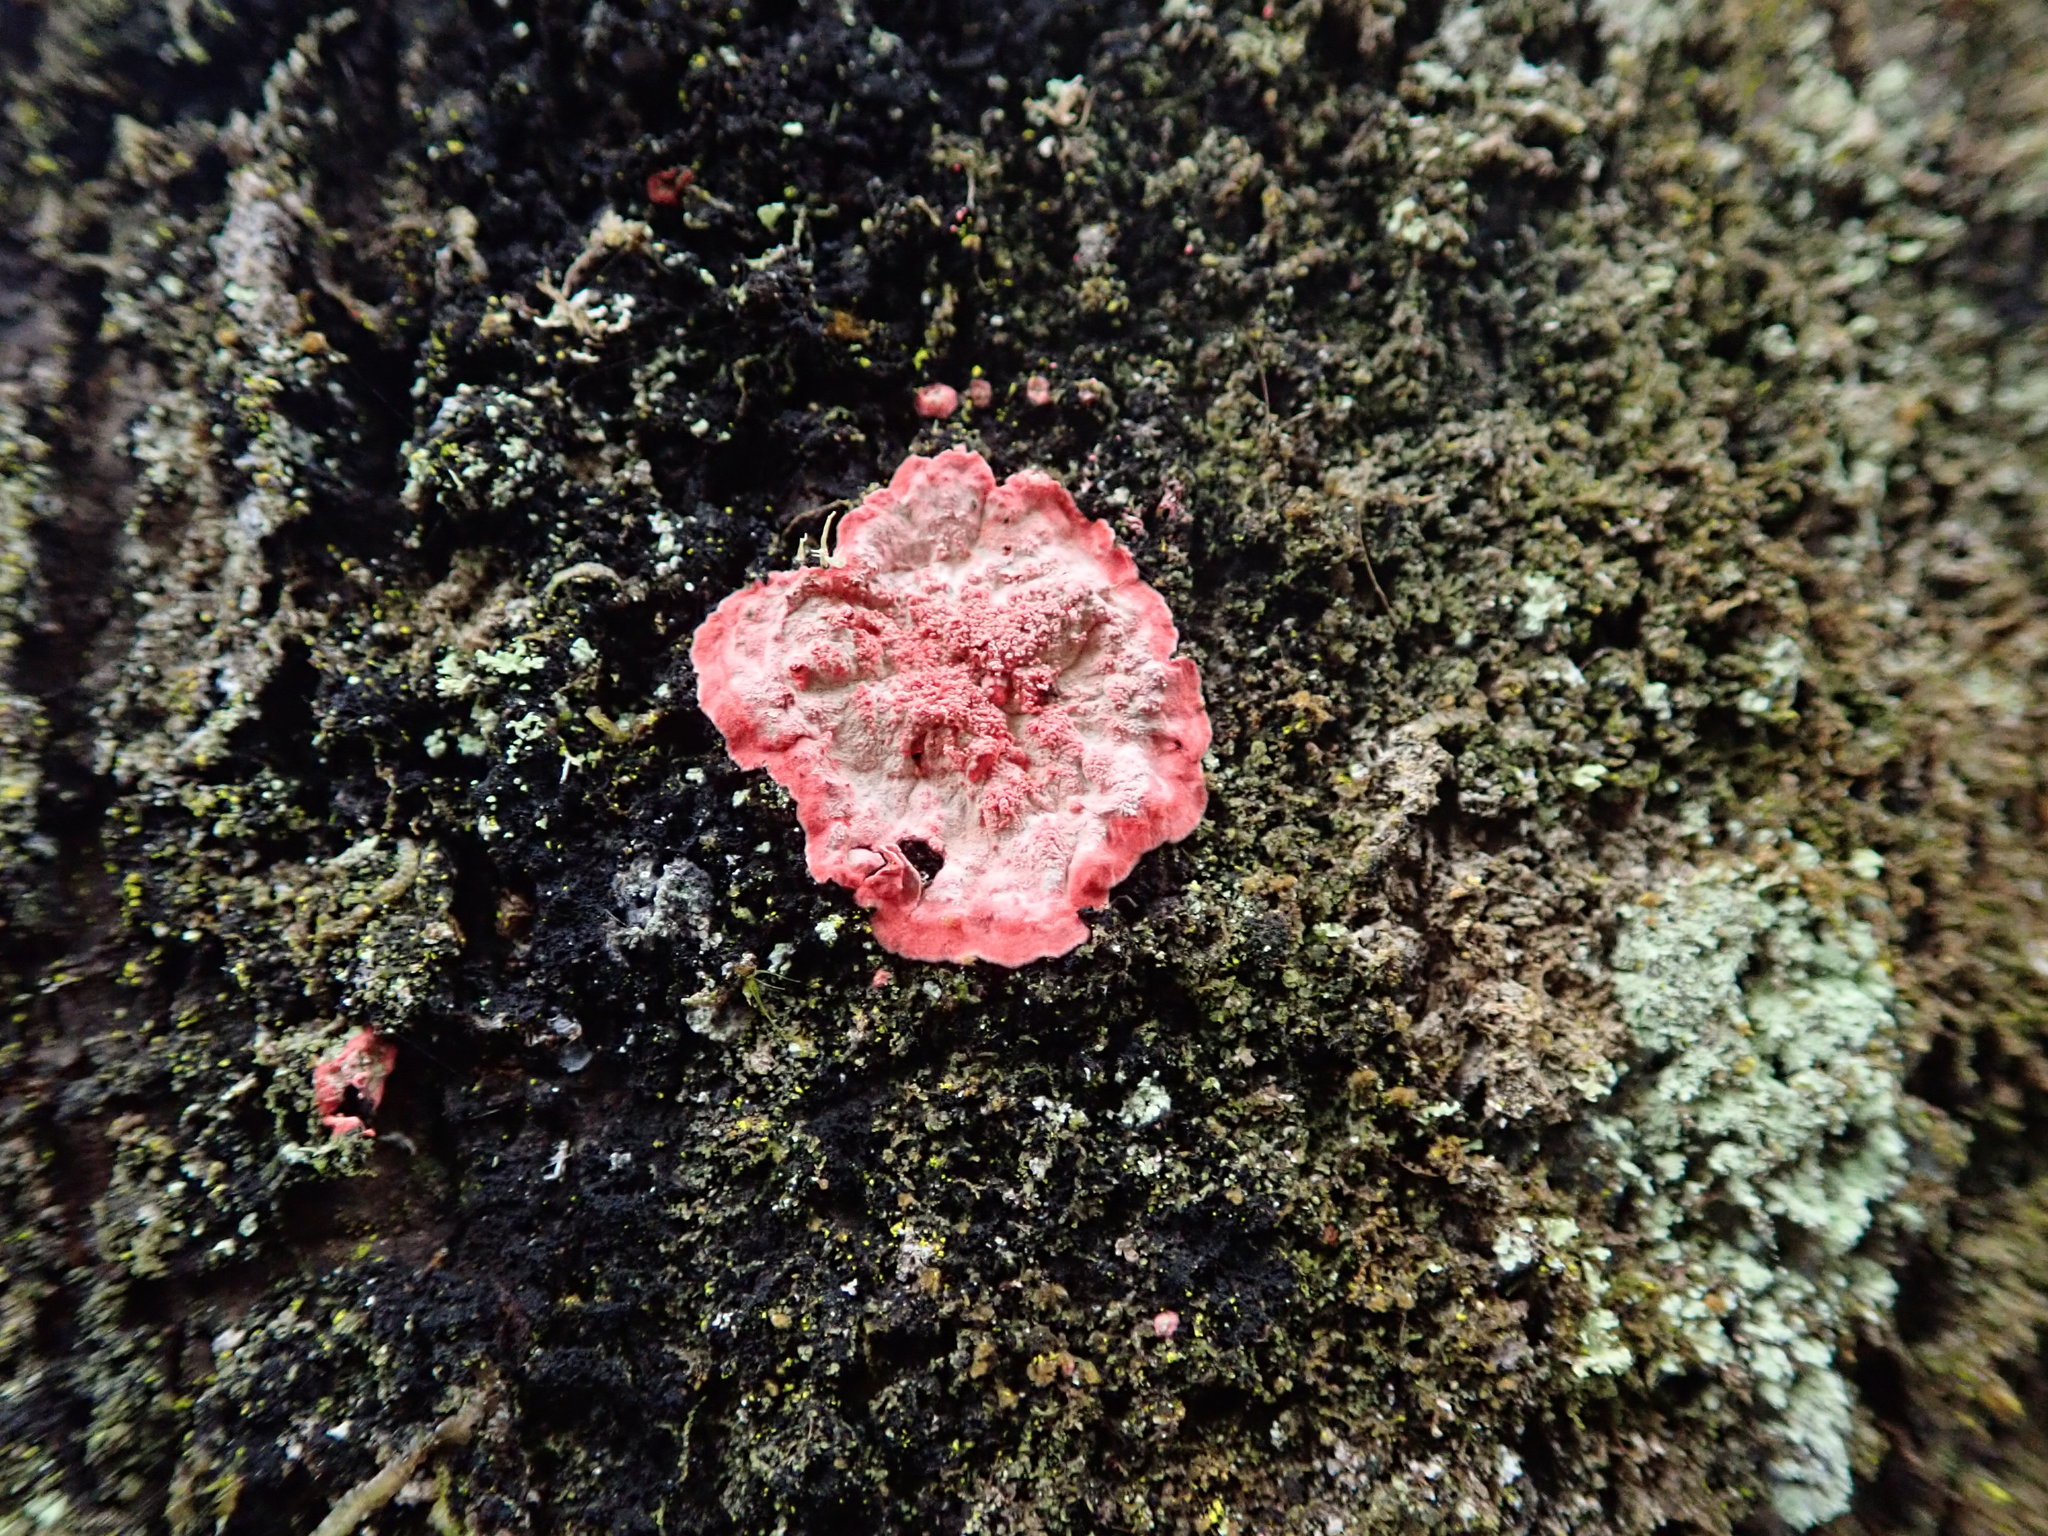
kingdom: Fungi
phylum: Ascomycota
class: Arthoniomycetes
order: Arthoniales
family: Arthoniaceae
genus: Herpothallon
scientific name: Herpothallon rubrocinctum
